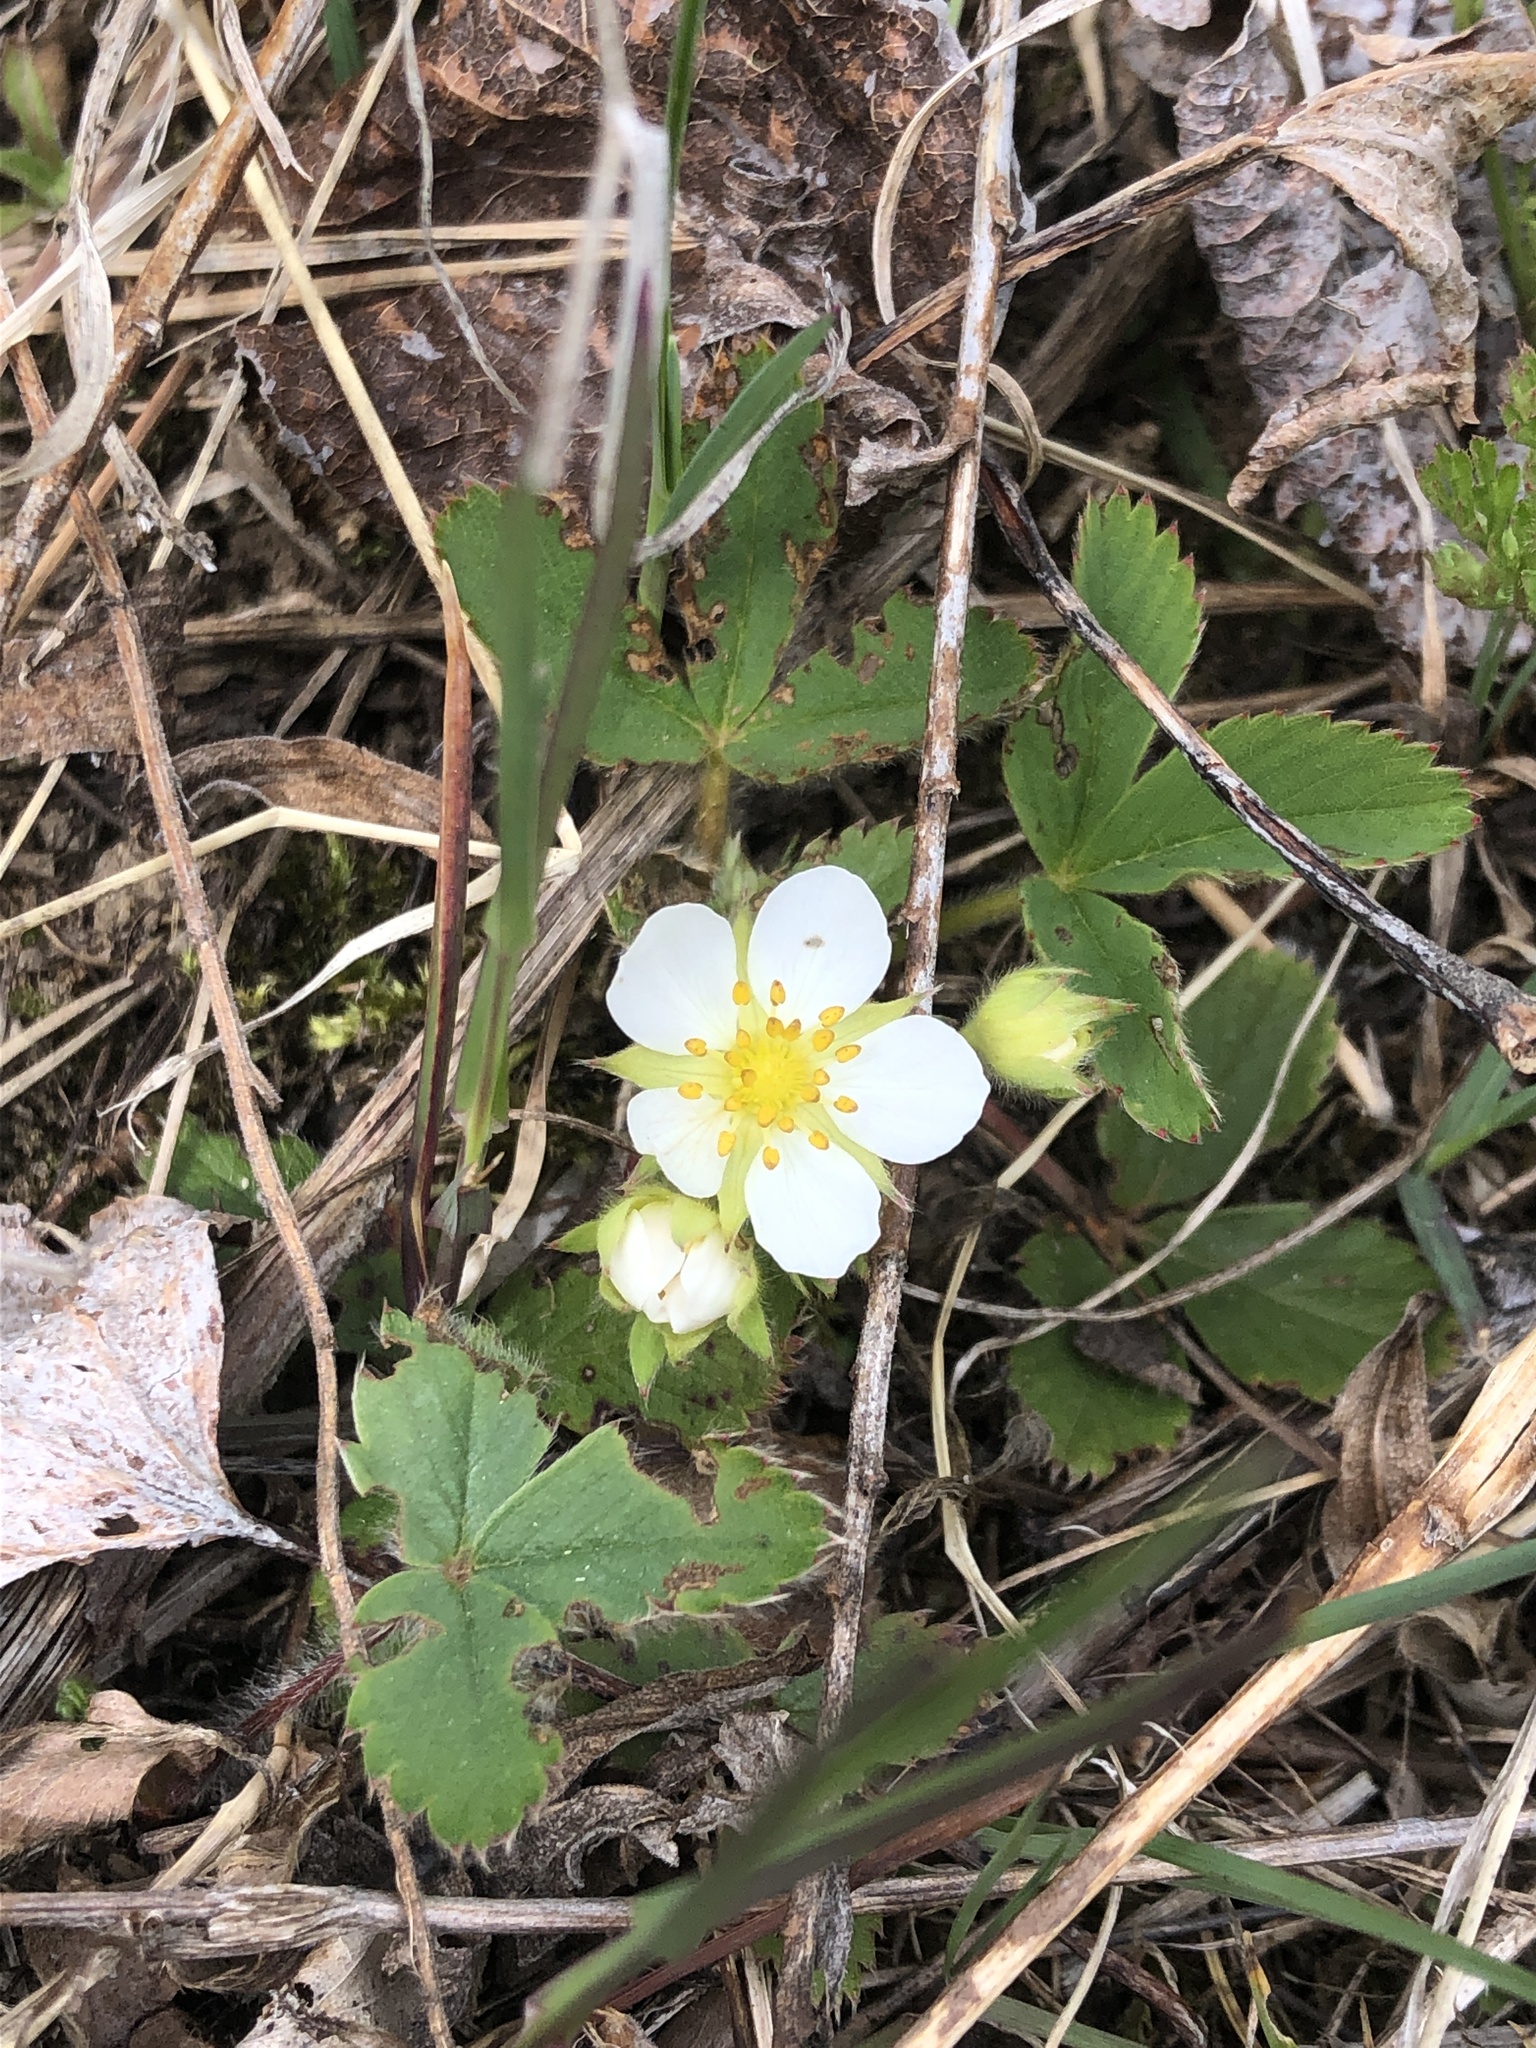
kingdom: Plantae
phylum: Tracheophyta
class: Magnoliopsida
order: Rosales
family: Rosaceae
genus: Fragaria
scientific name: Fragaria virginiana
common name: Thickleaved wild strawberry
